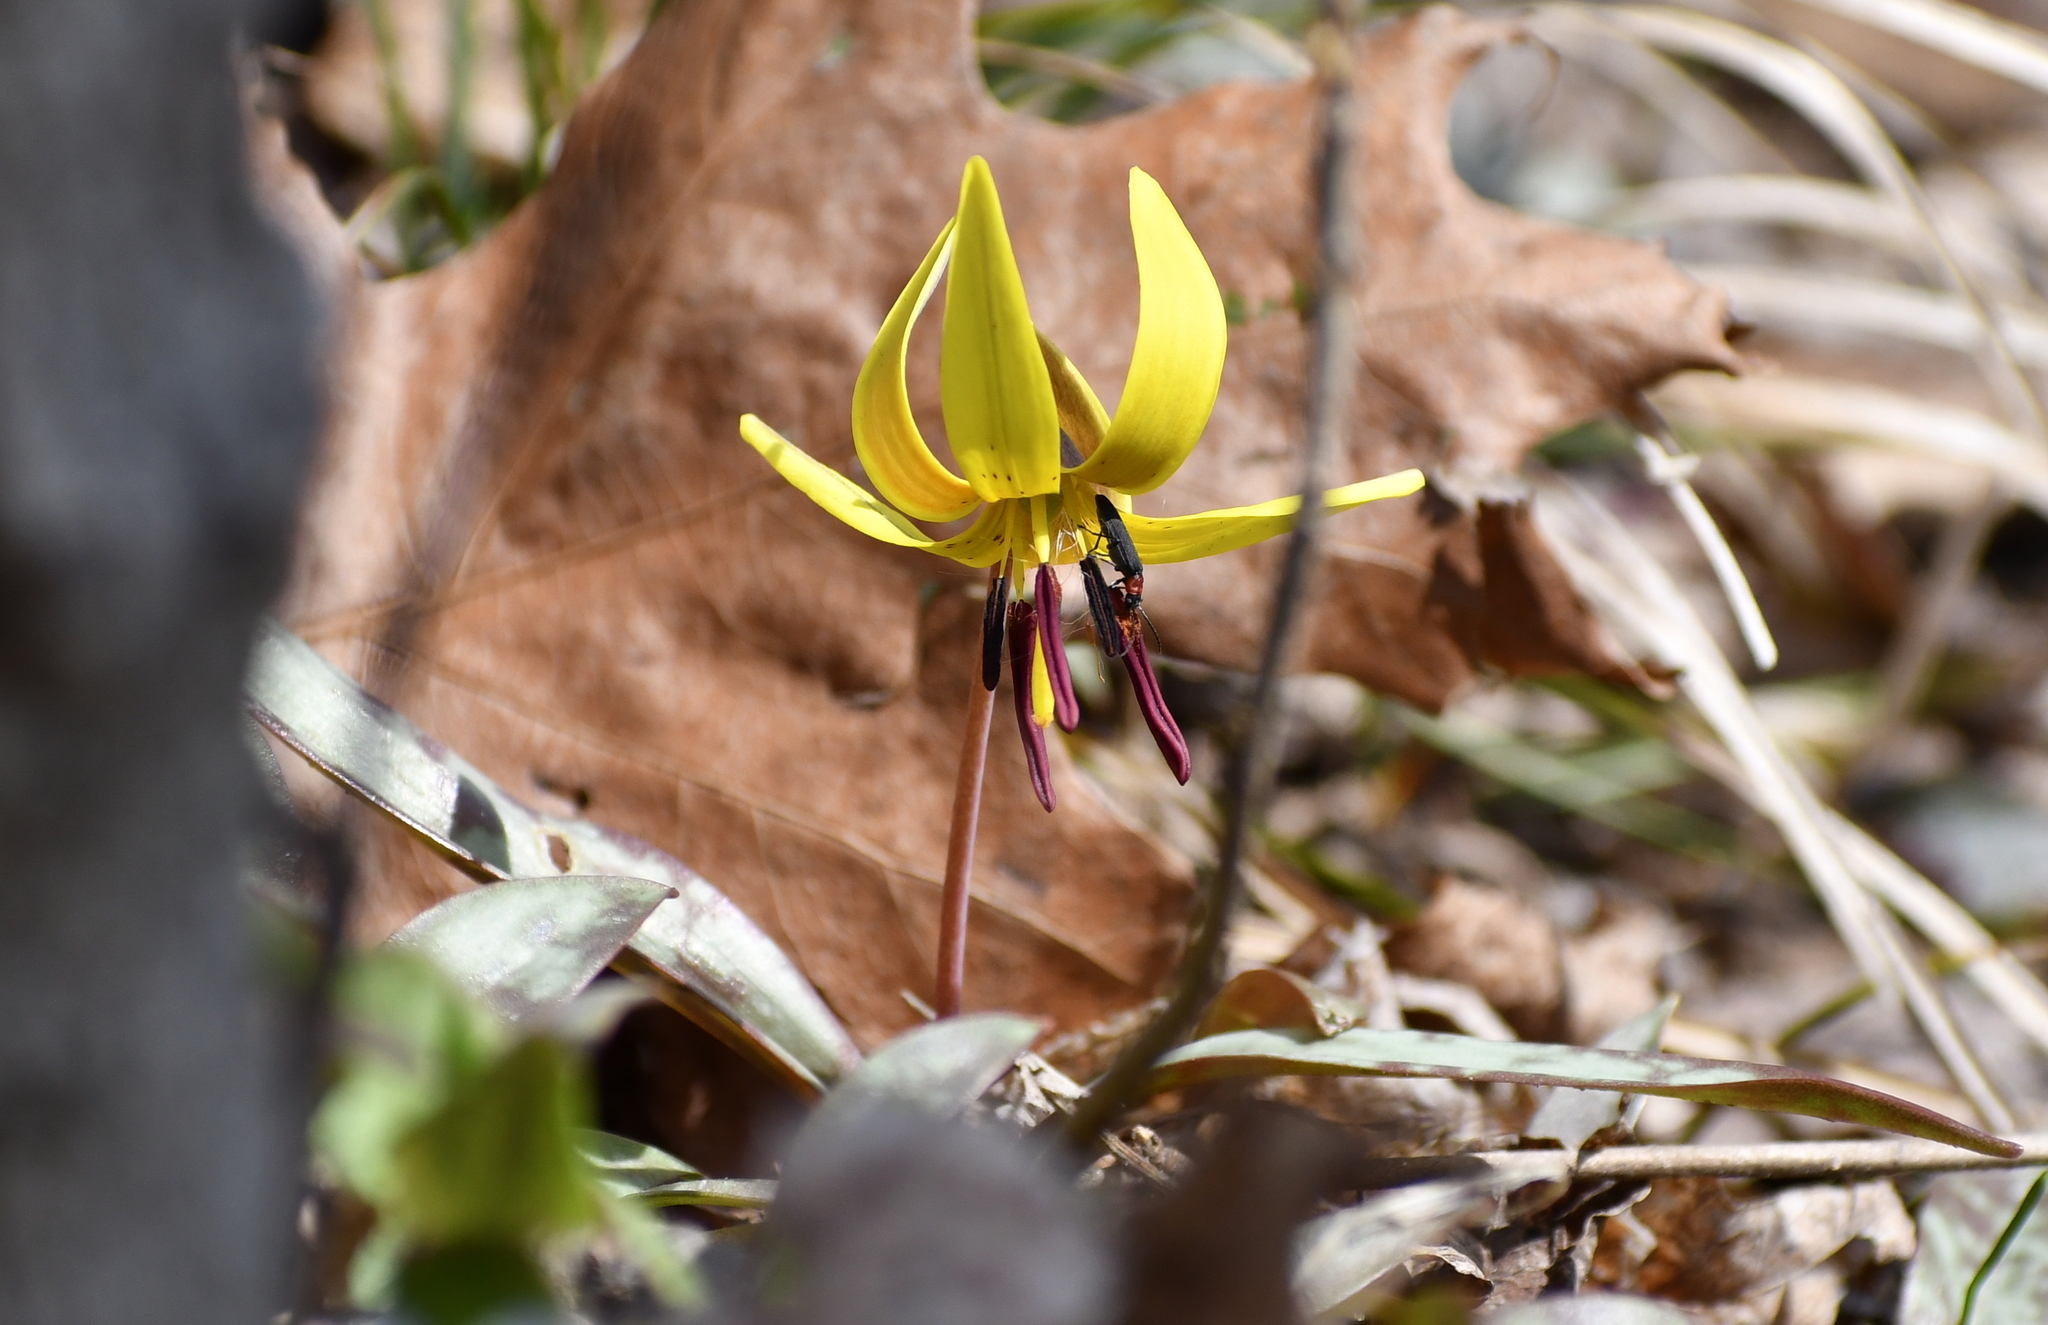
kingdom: Animalia
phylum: Arthropoda
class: Insecta
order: Coleoptera
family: Oedemeridae
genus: Ischnomera
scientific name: Ischnomera
